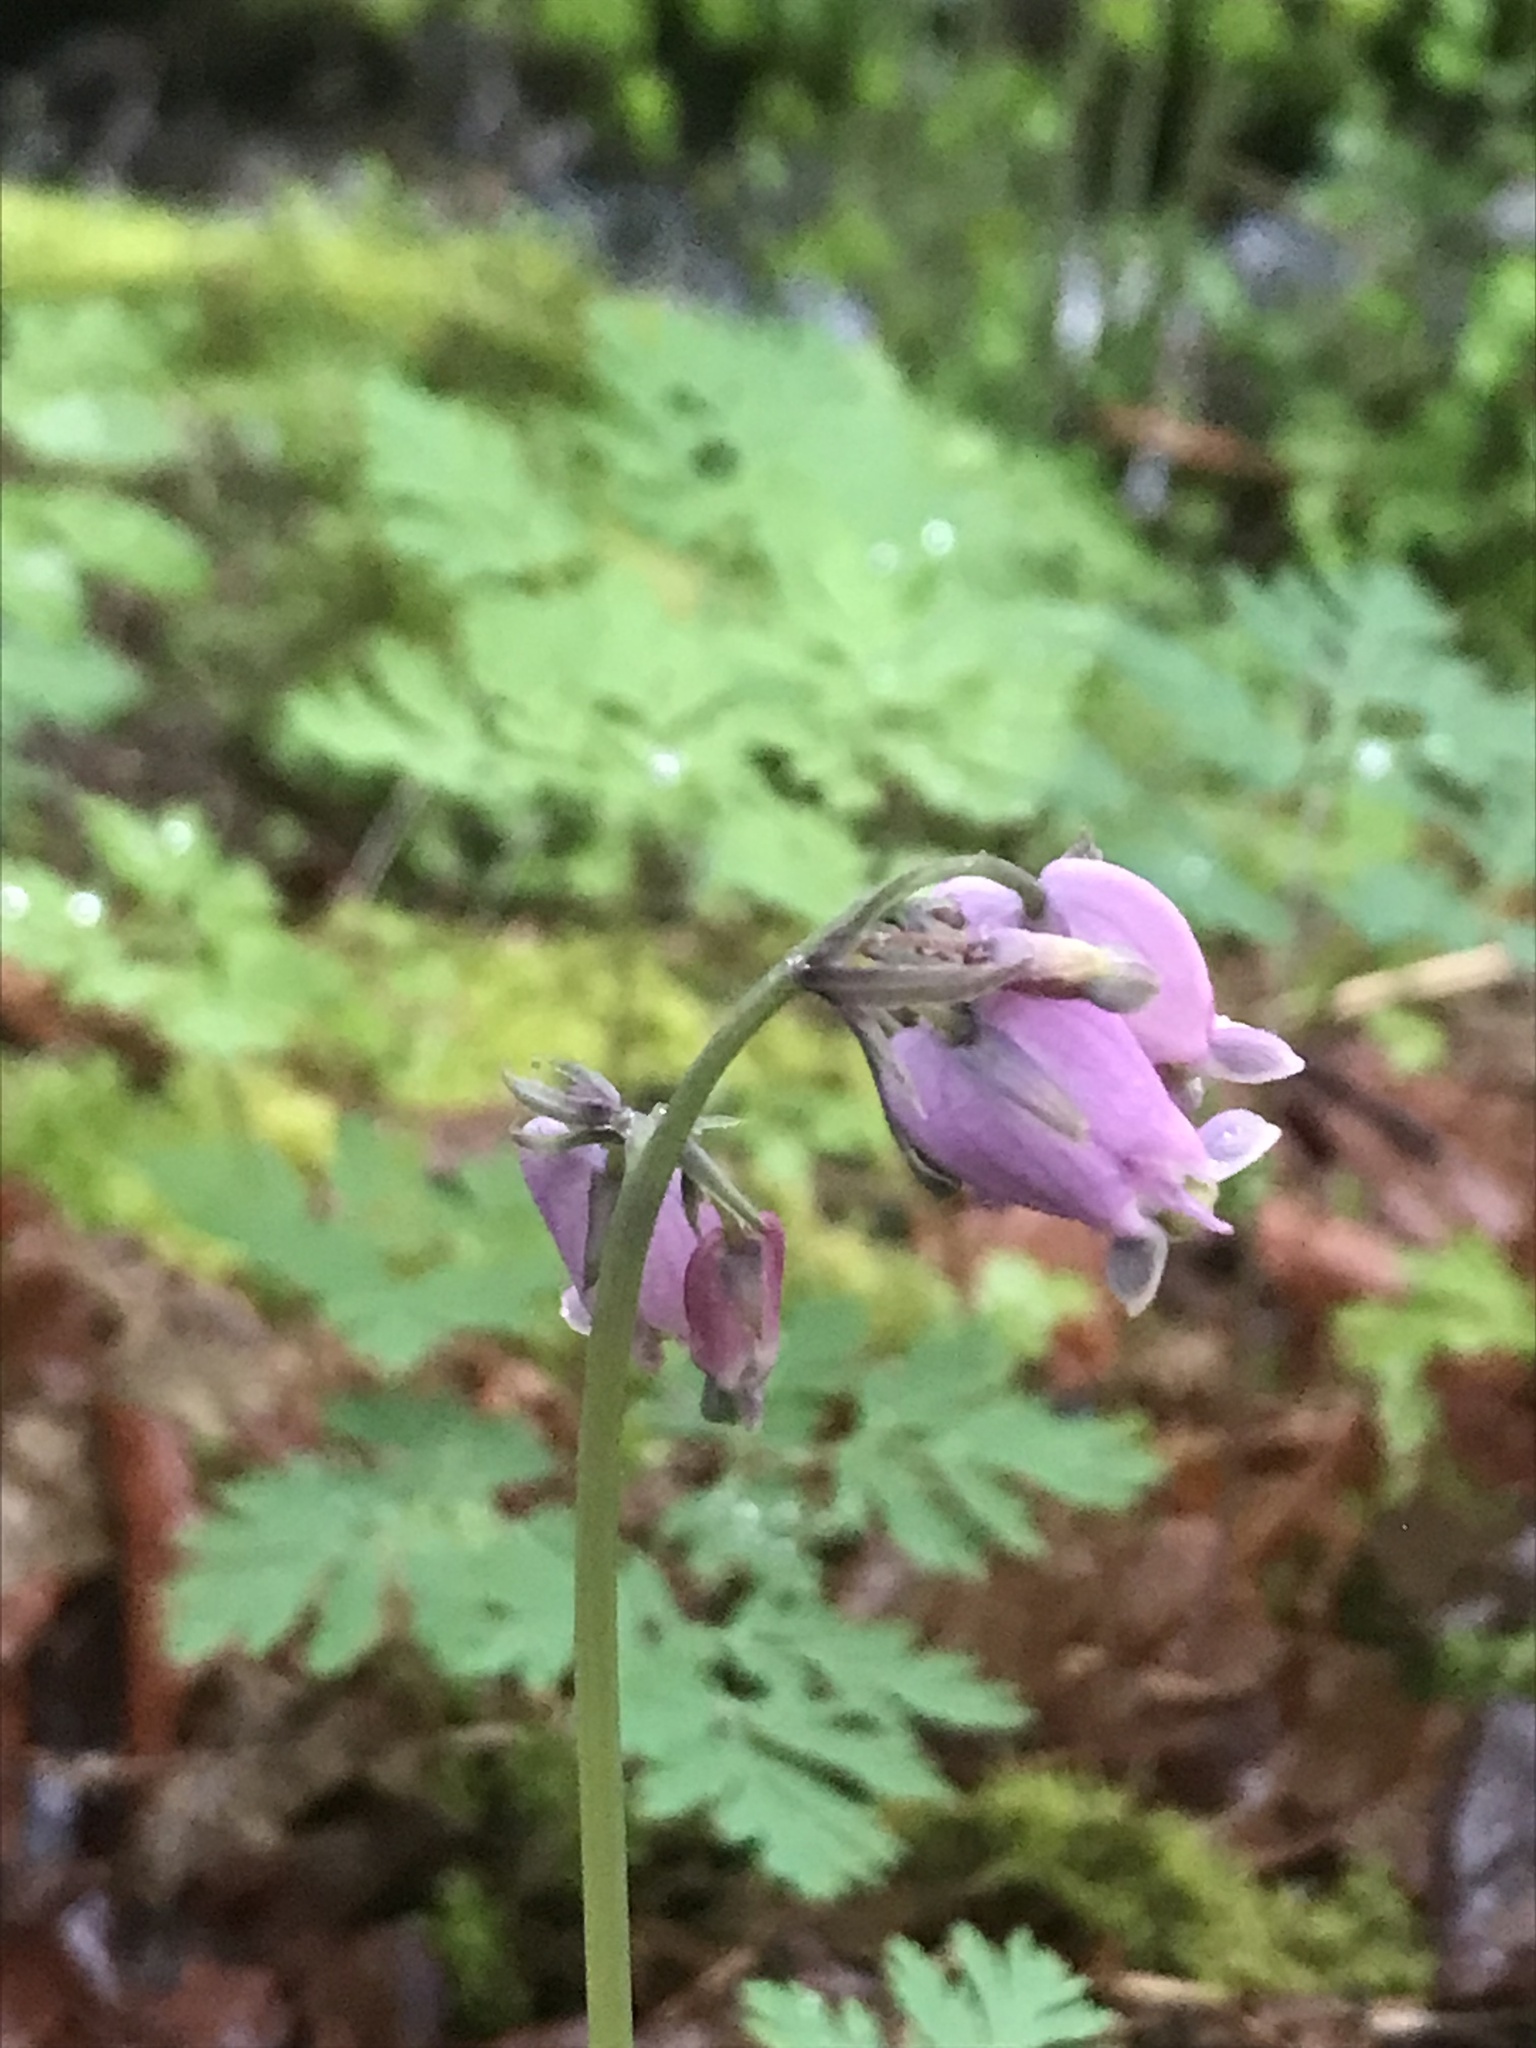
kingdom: Plantae
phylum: Tracheophyta
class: Magnoliopsida
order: Ranunculales
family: Papaveraceae
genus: Dicentra
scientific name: Dicentra formosa
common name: Bleeding-heart
